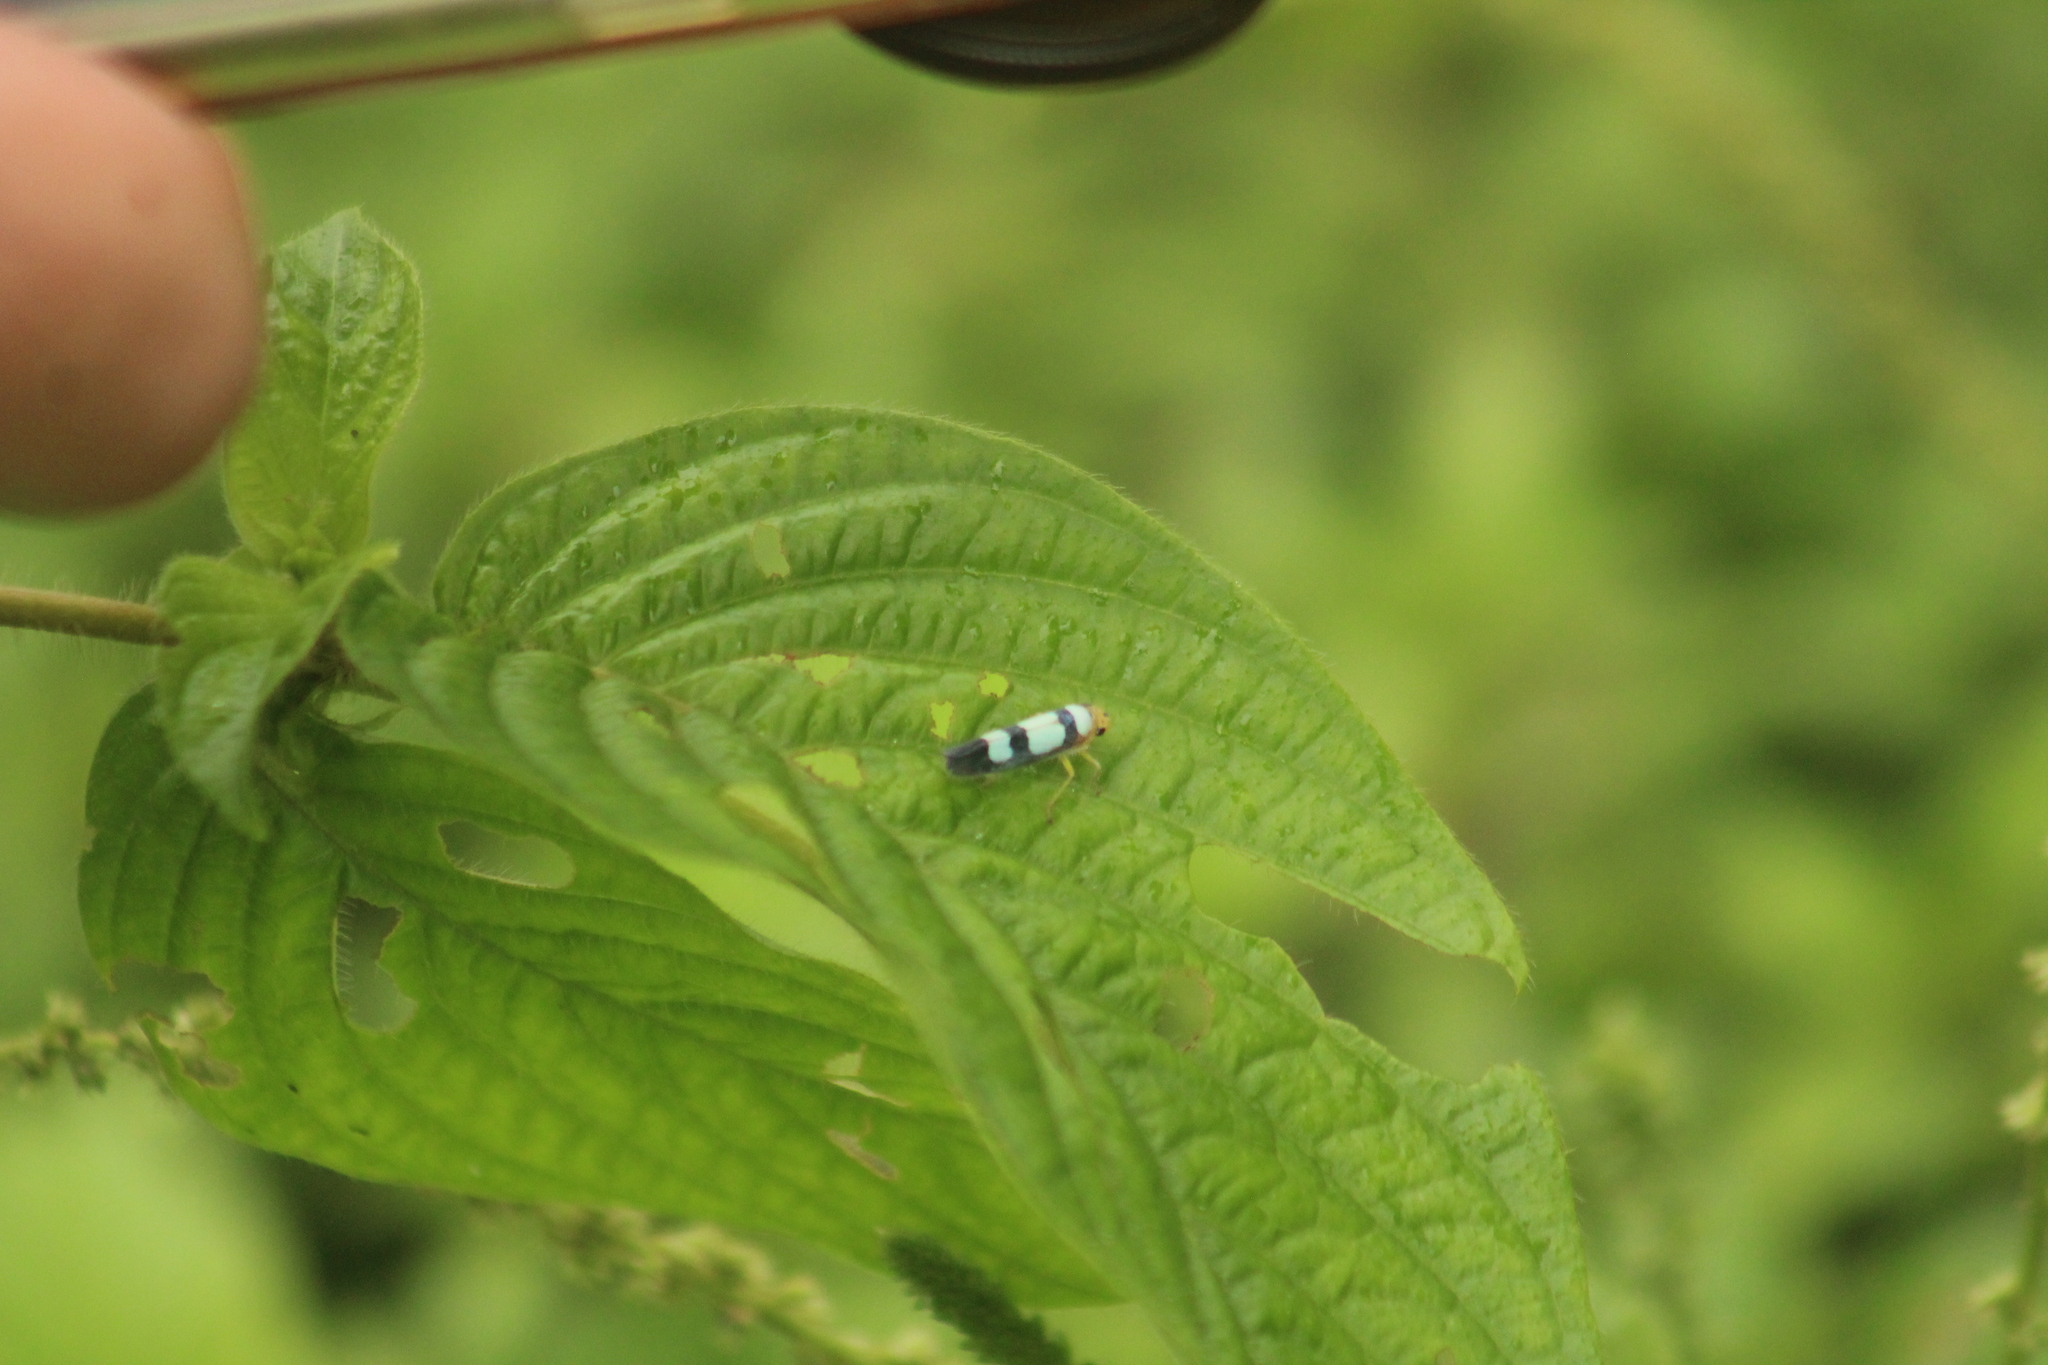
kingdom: Animalia
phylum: Arthropoda
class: Insecta
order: Hemiptera
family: Cicadellidae
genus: Tettisama
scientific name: Tettisama bisellata
